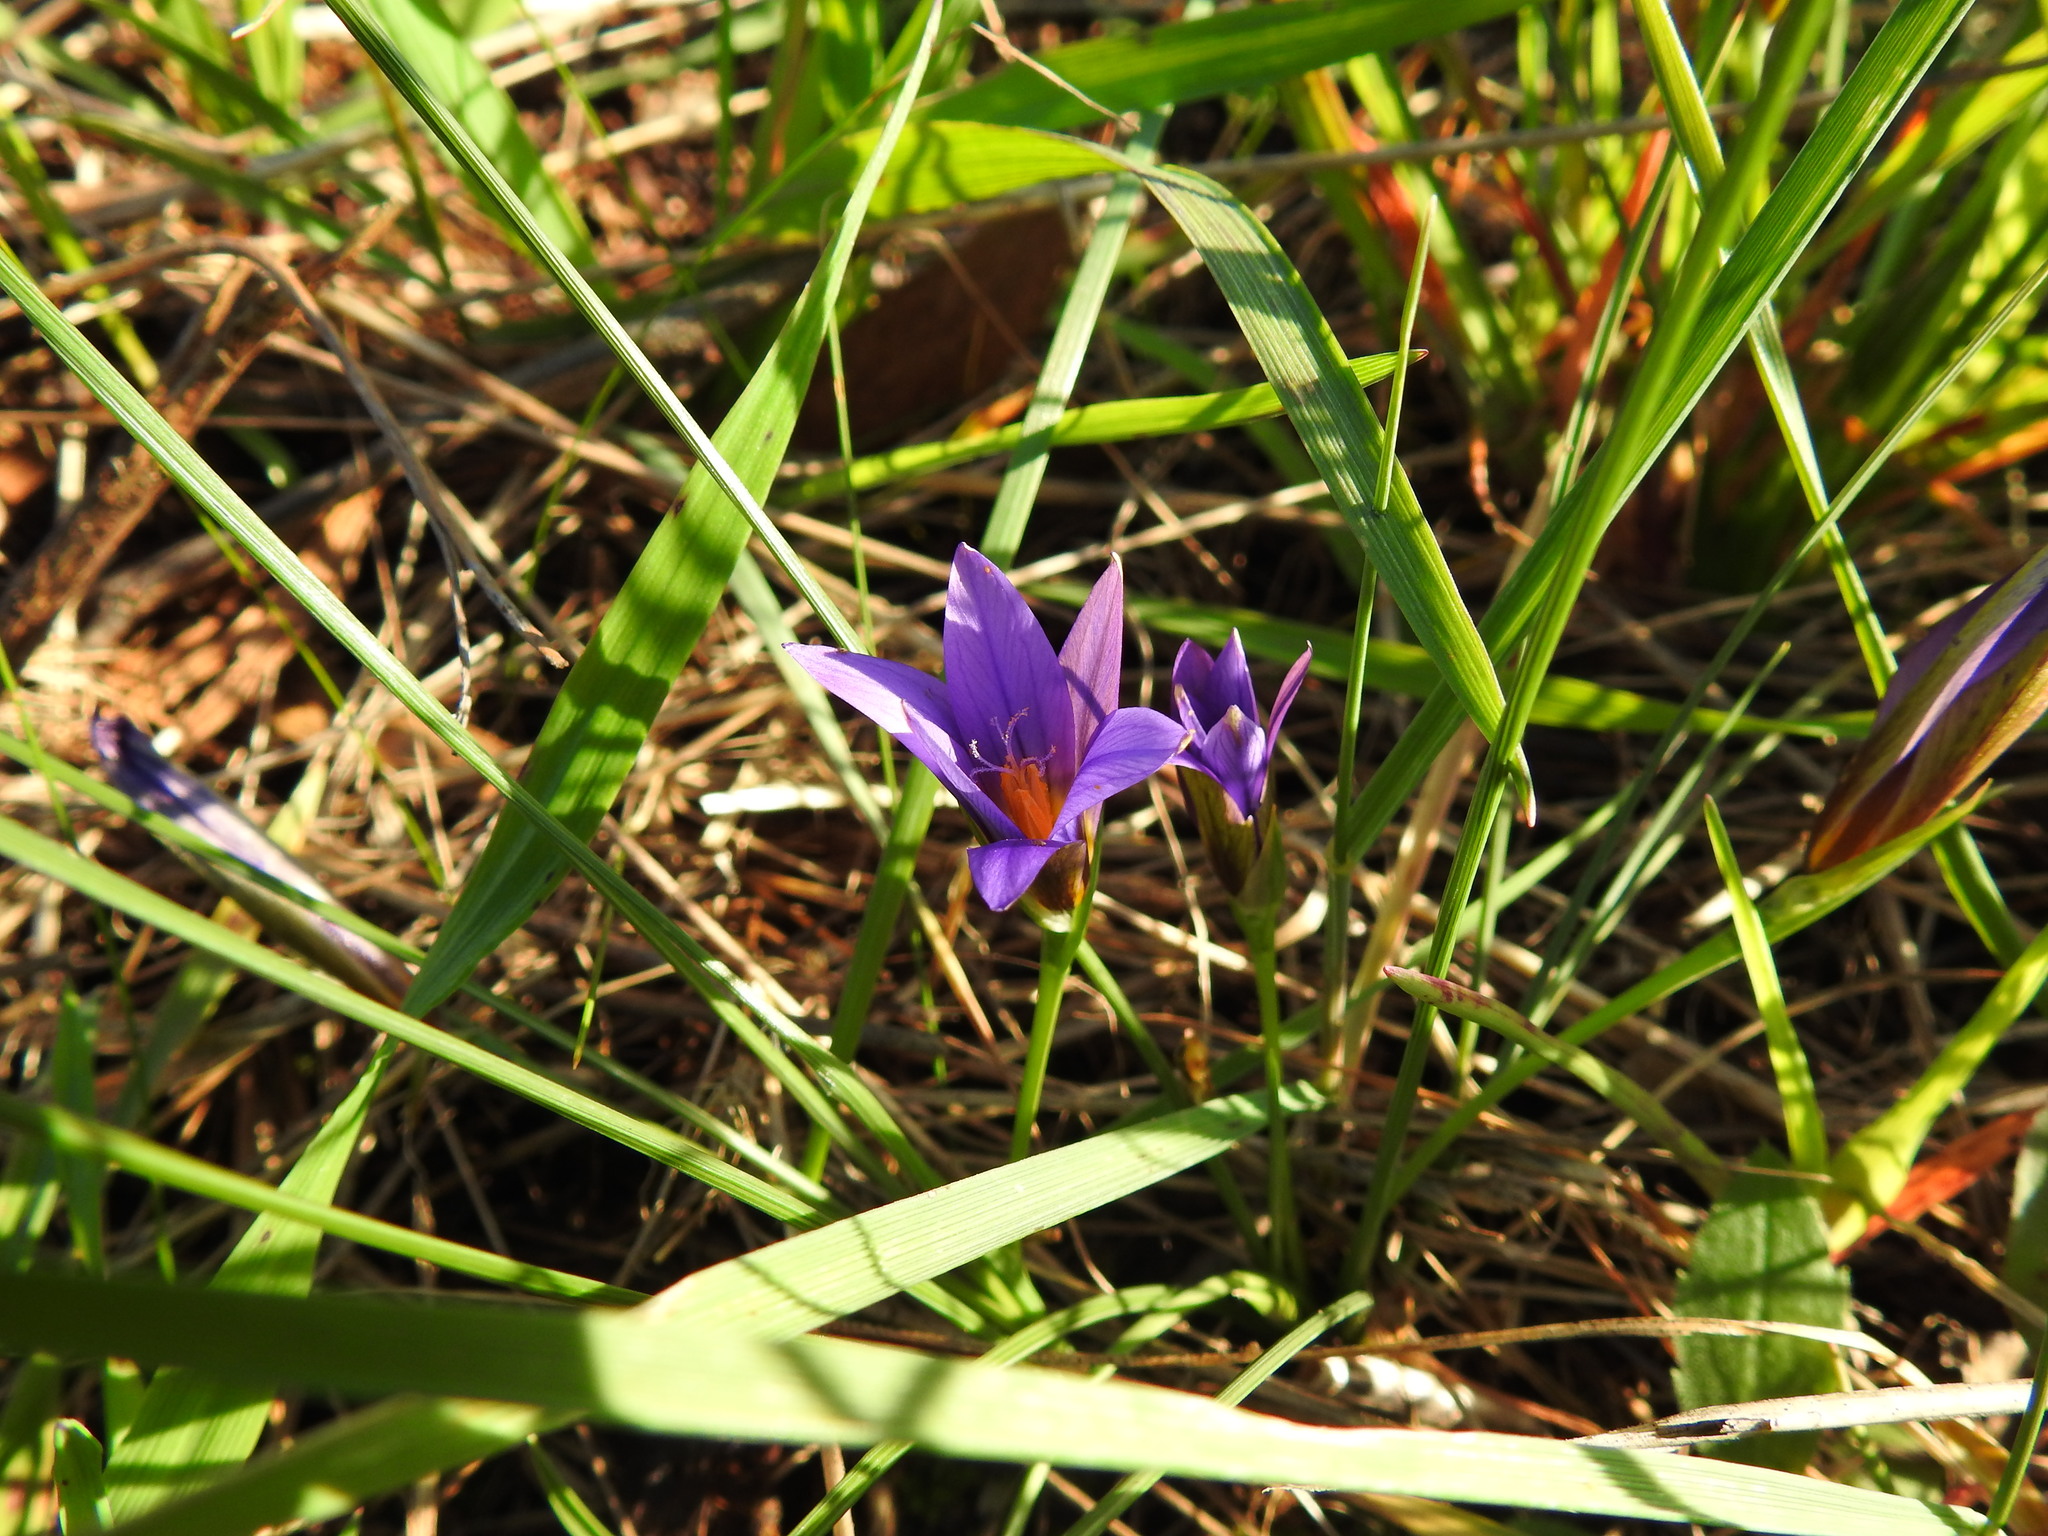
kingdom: Plantae
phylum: Tracheophyta
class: Liliopsida
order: Asparagales
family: Iridaceae
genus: Romulea
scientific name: Romulea bulbocodium
